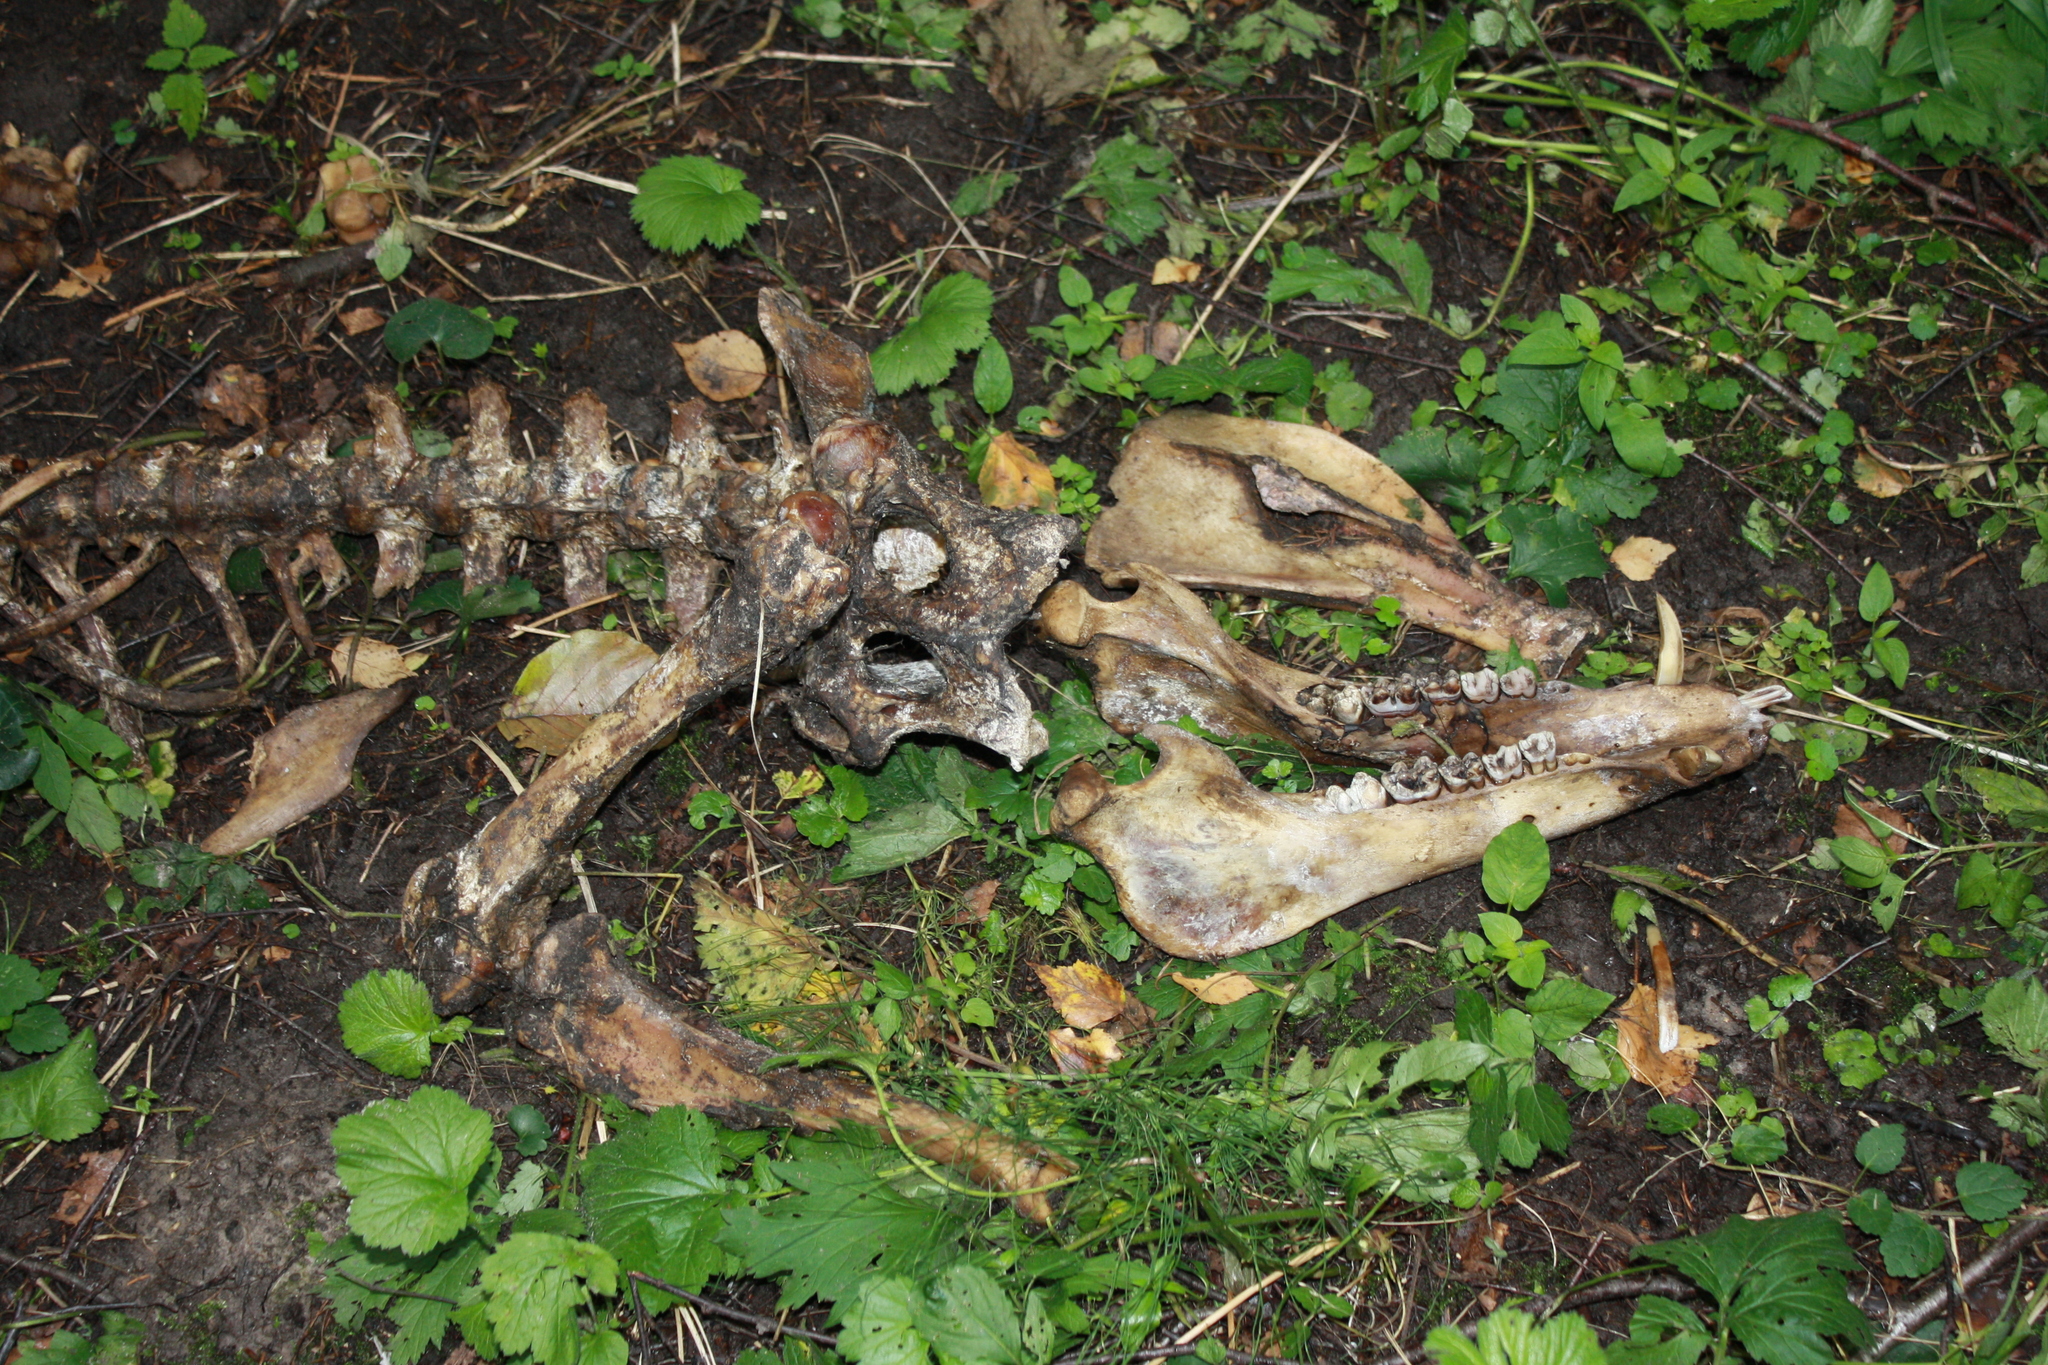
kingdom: Animalia
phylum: Chordata
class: Mammalia
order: Artiodactyla
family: Suidae
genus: Sus
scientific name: Sus scrofa
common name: Wild boar
